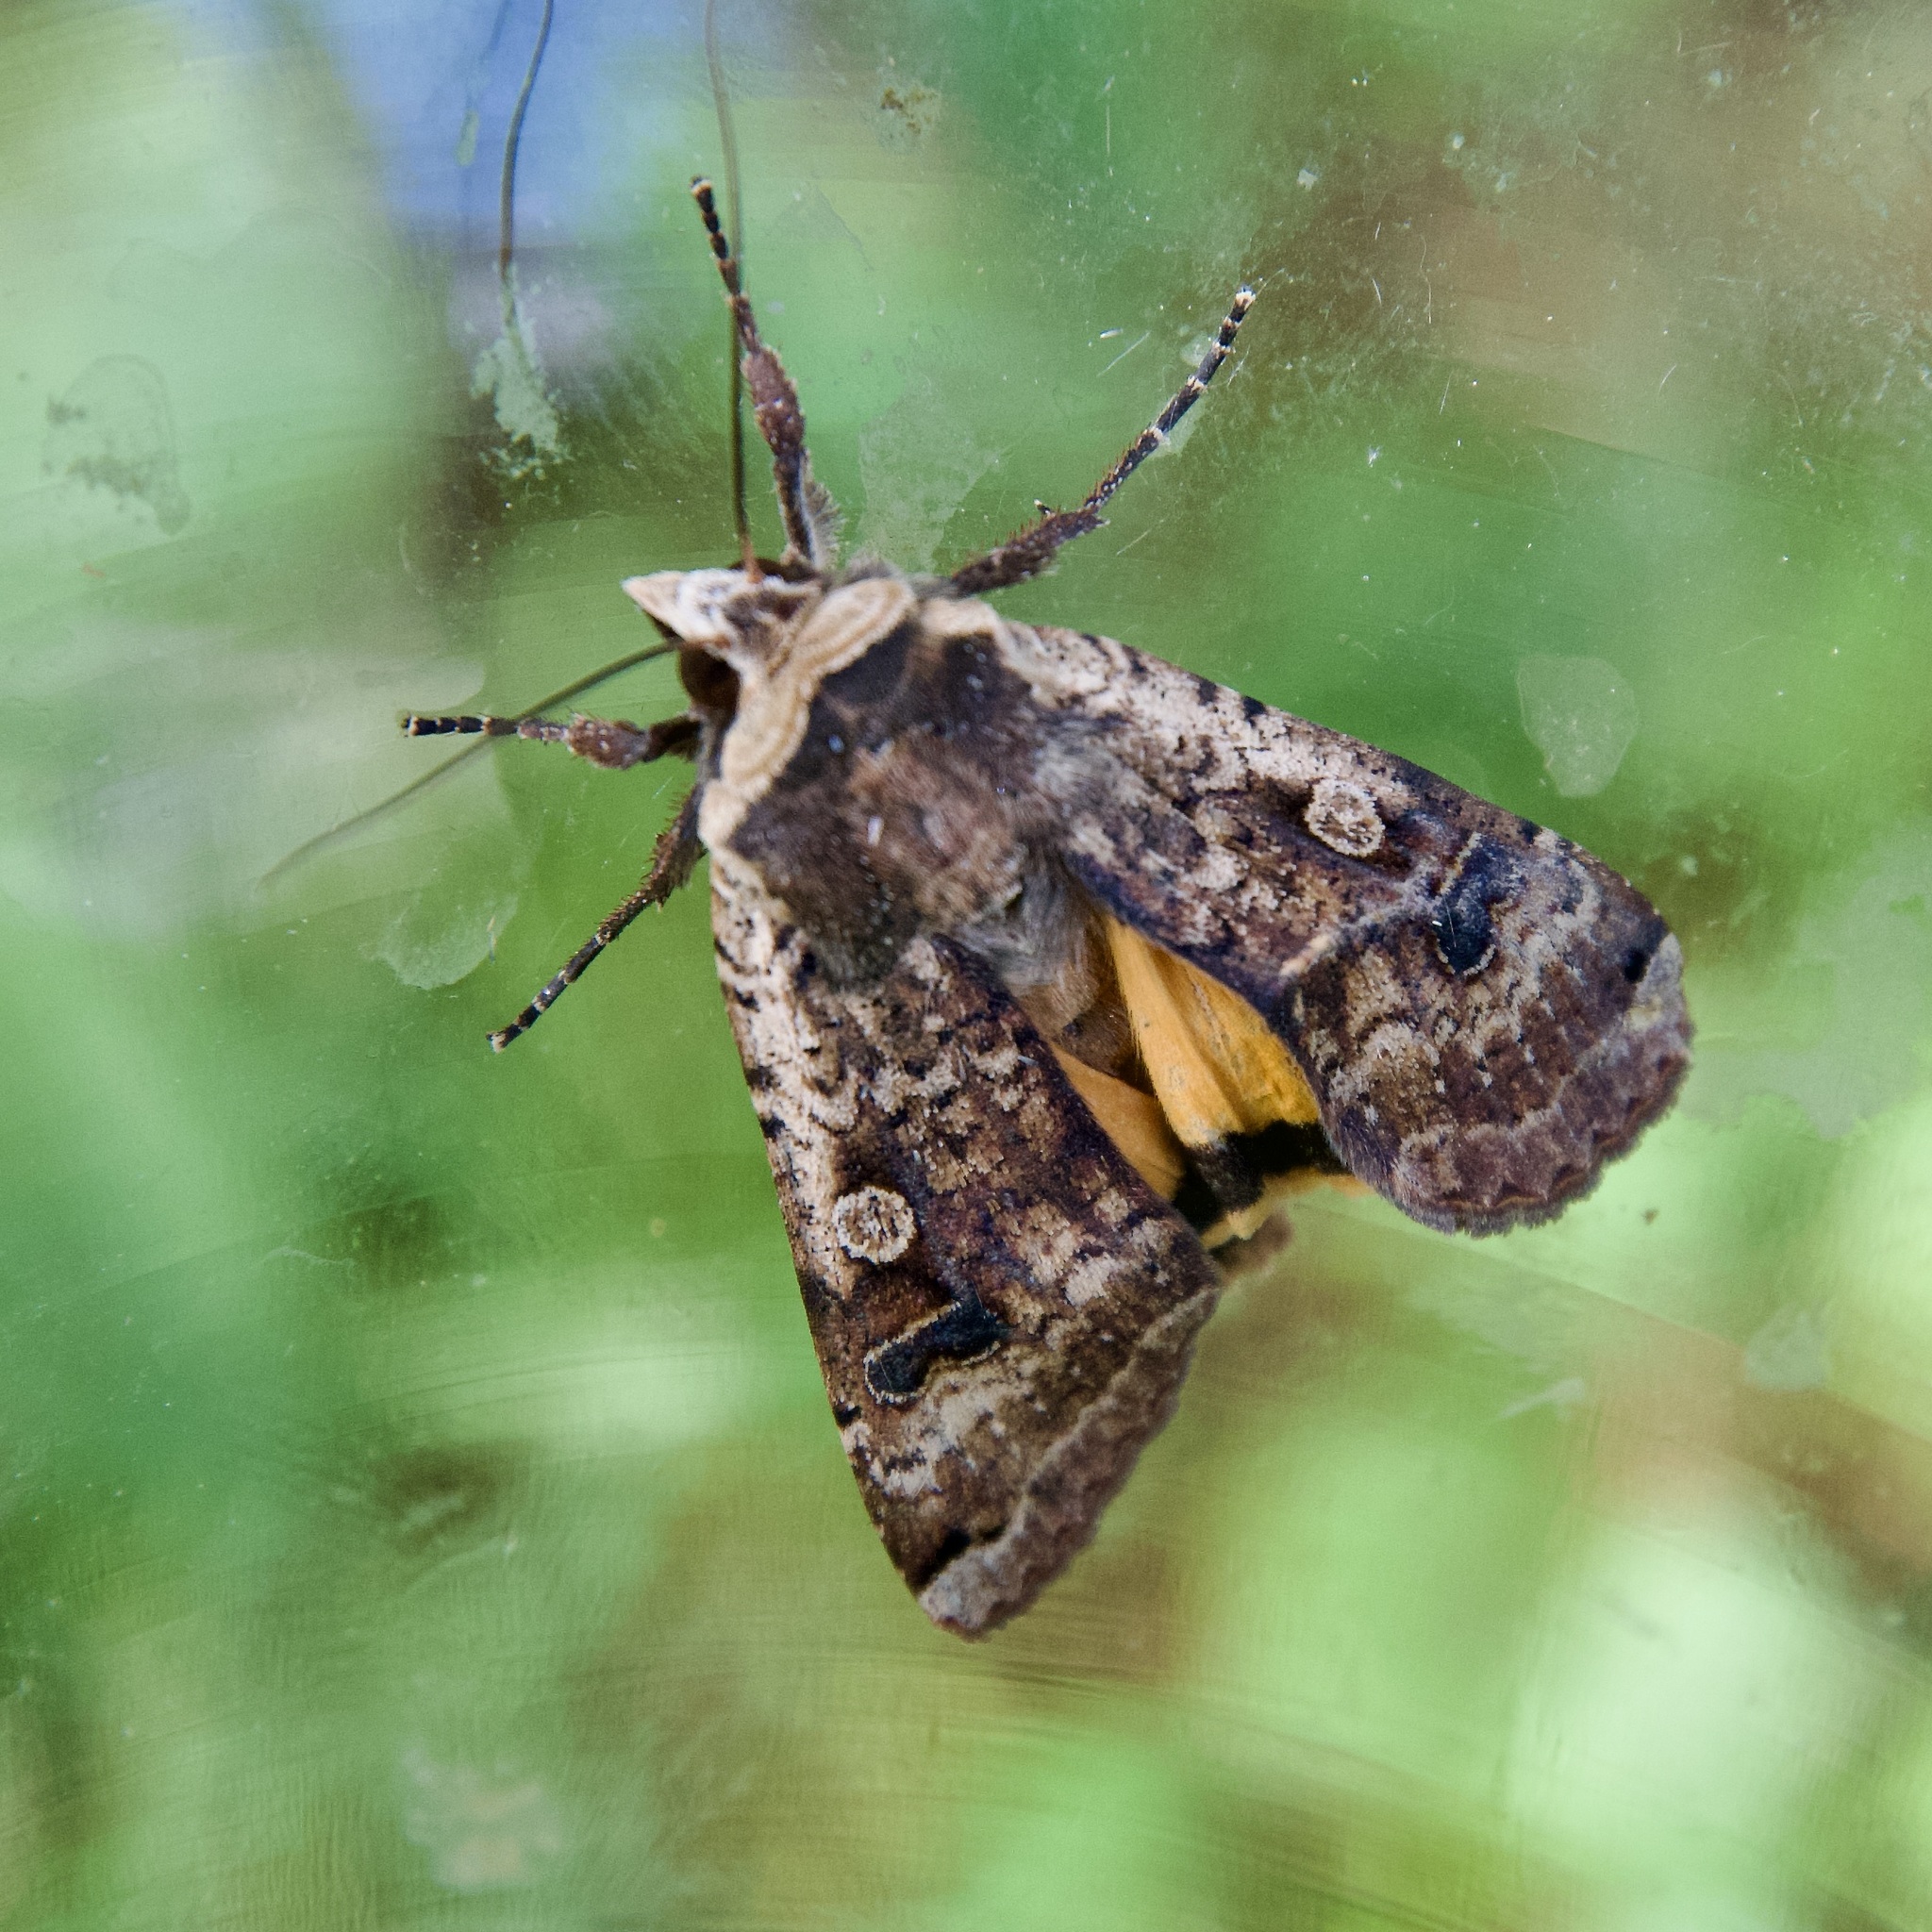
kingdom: Animalia
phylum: Arthropoda
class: Insecta
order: Lepidoptera
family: Noctuidae
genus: Noctua
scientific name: Noctua pronuba
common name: Large yellow underwing
